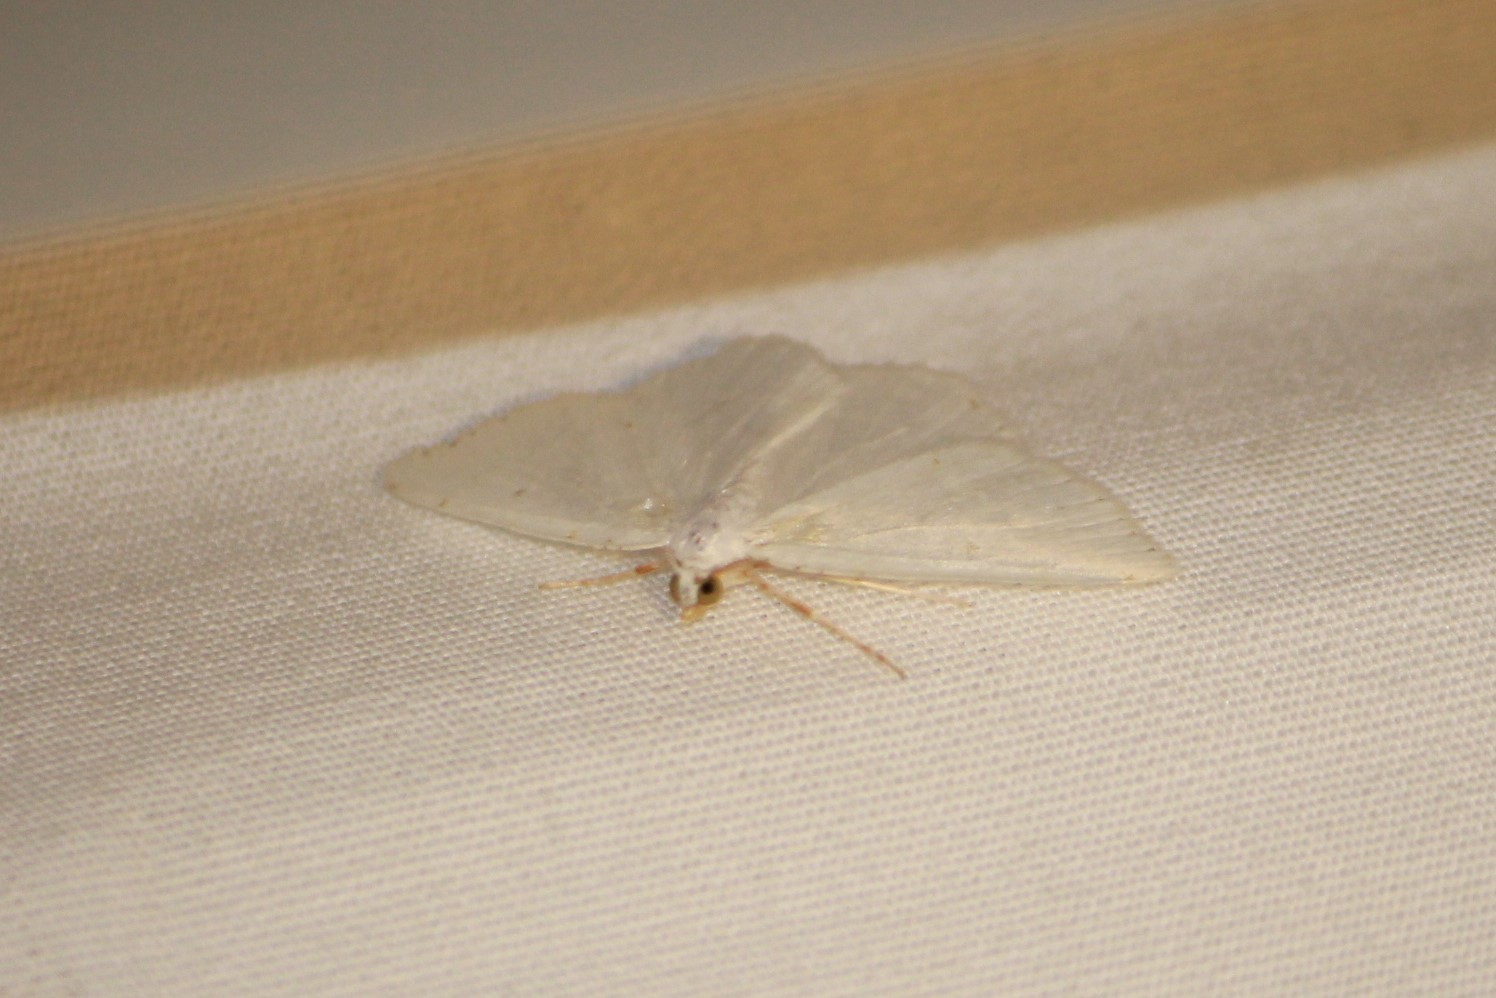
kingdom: Animalia
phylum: Arthropoda
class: Insecta
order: Lepidoptera
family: Geometridae
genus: Macaria
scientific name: Macaria pustularia
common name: Lesser maple spanworm moth
